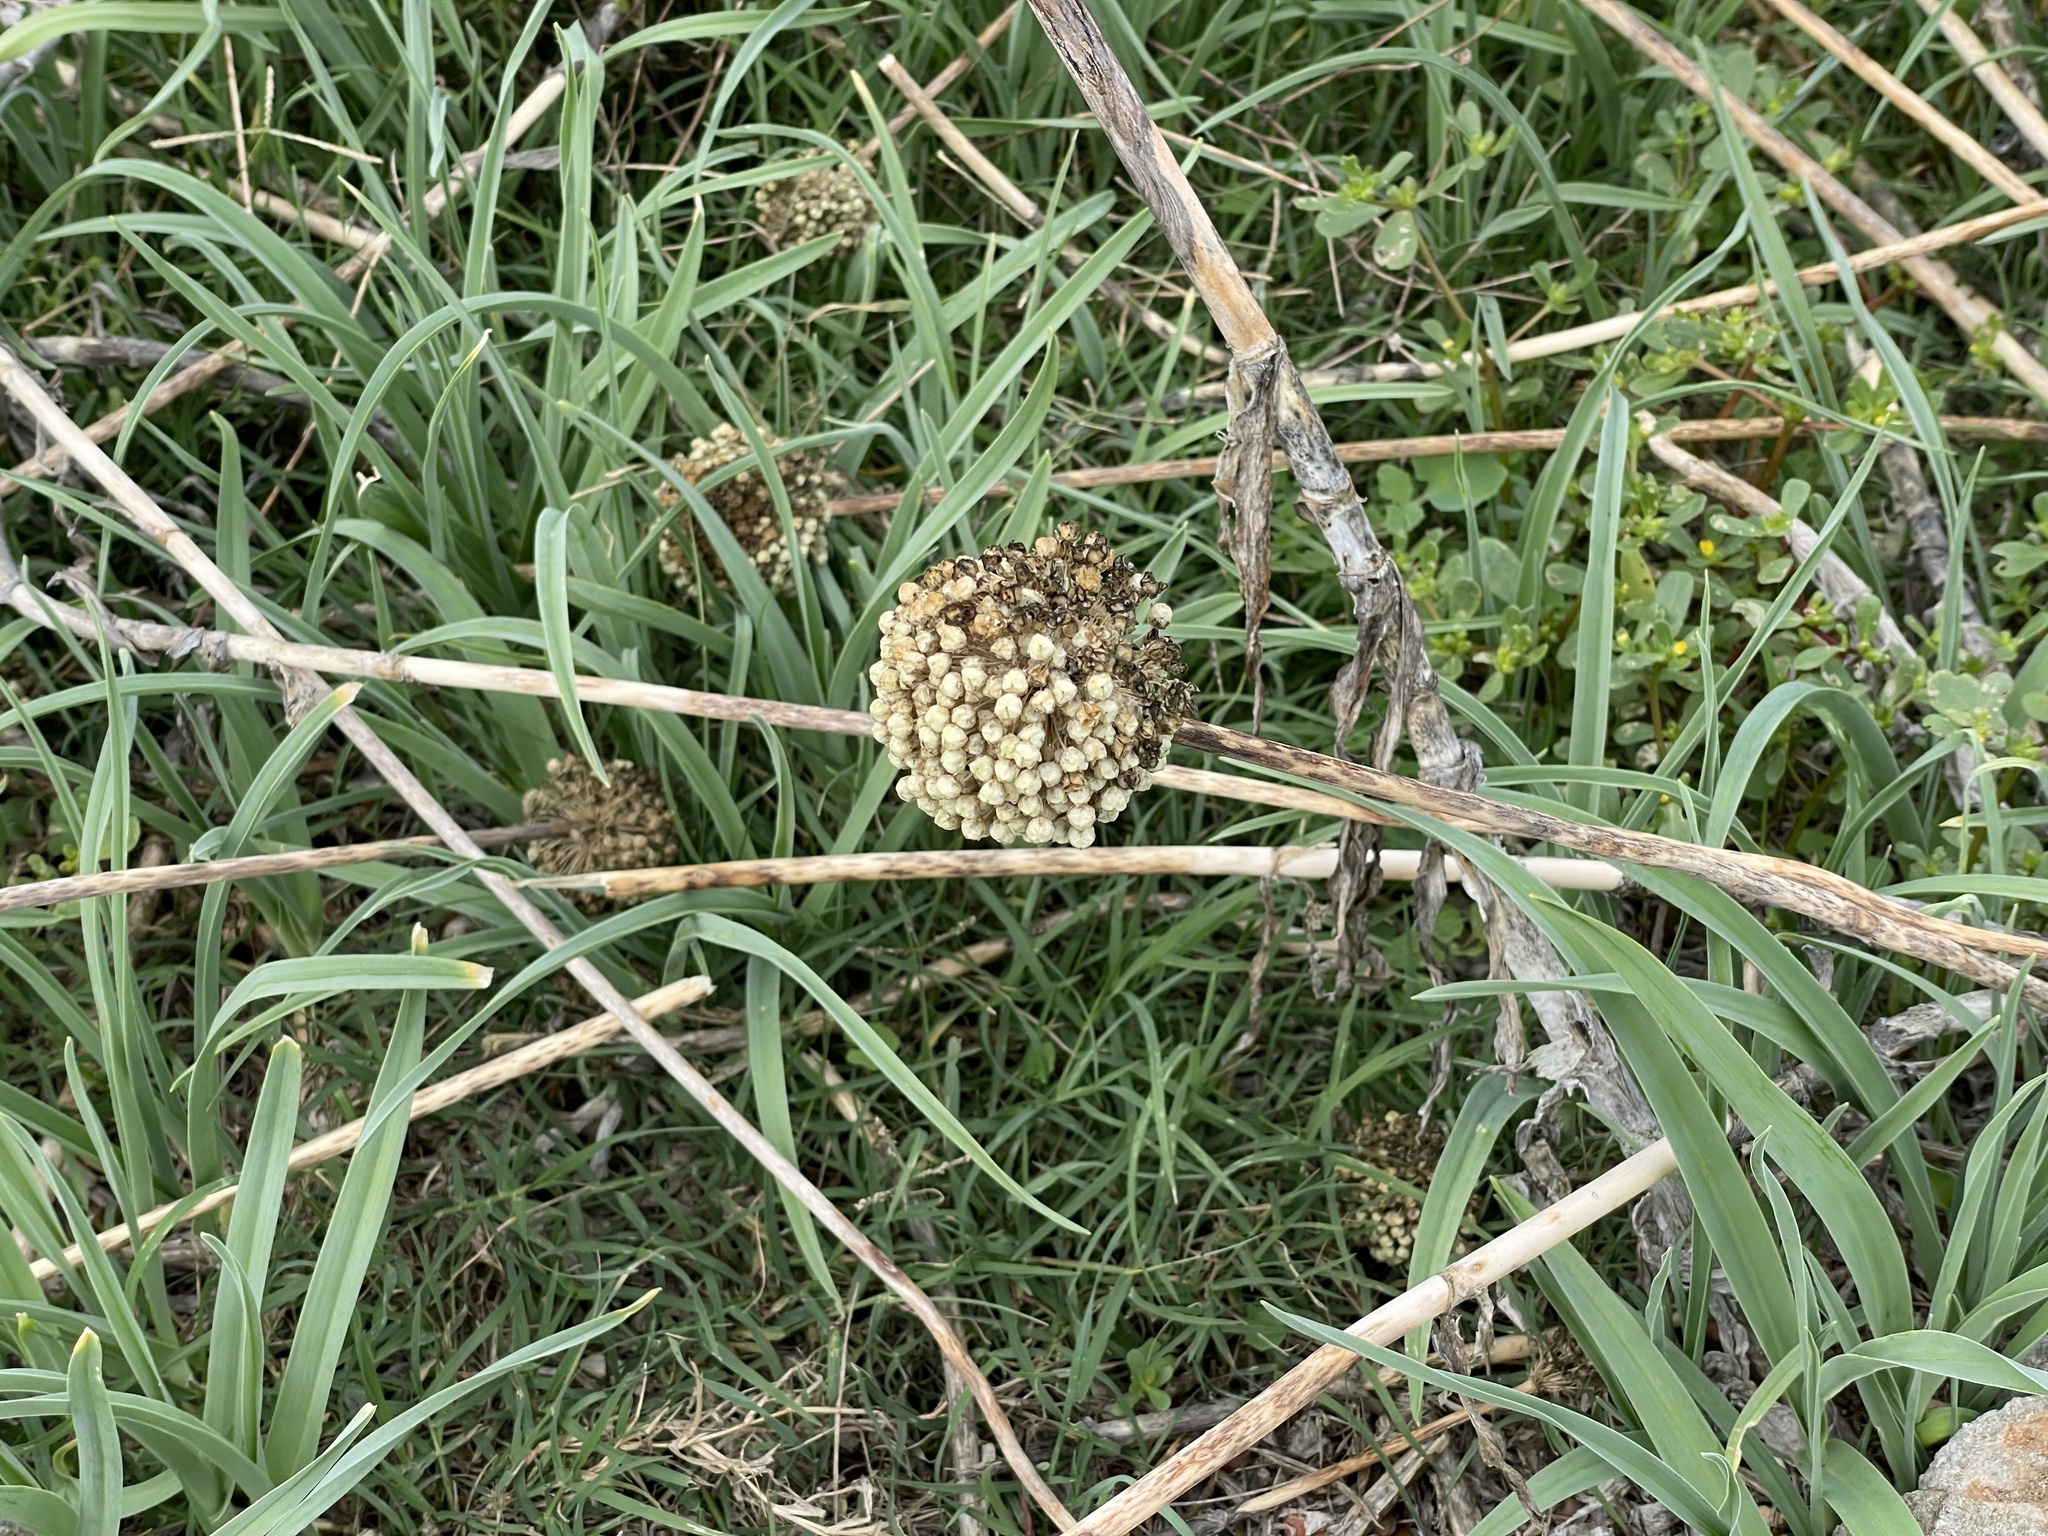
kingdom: Plantae
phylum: Tracheophyta
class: Liliopsida
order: Asparagales
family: Amaryllidaceae
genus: Allium
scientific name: Allium commutatum
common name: Sea garlic
